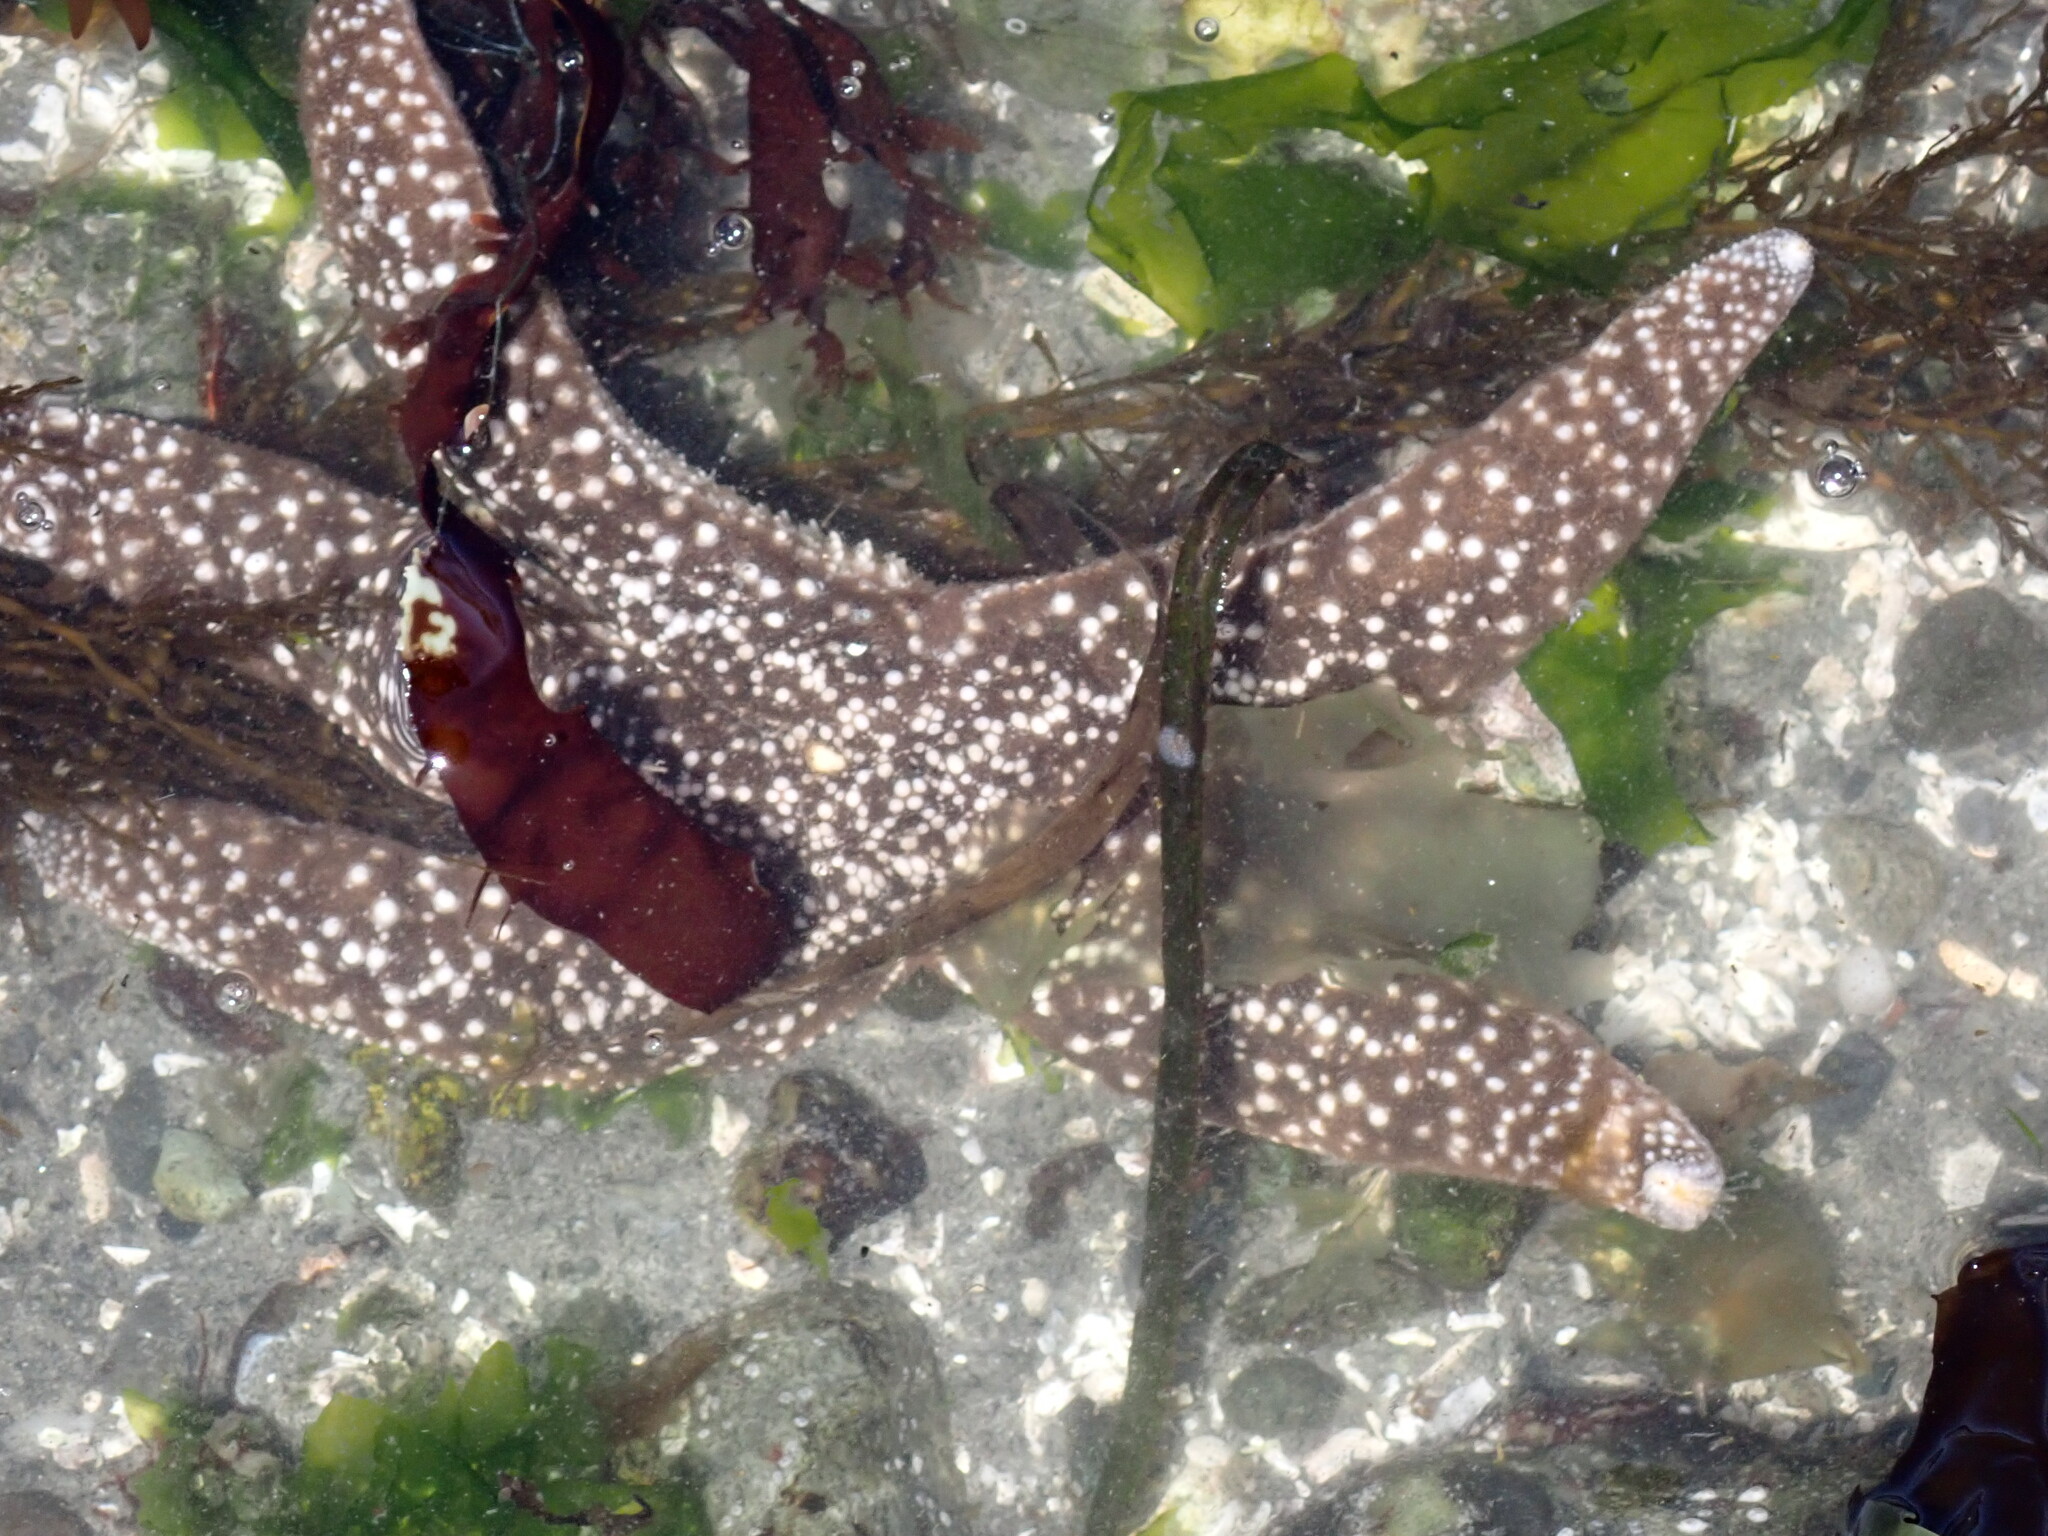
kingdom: Animalia
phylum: Echinodermata
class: Asteroidea
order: Forcipulatida
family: Asteriidae
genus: Evasterias
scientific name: Evasterias troschelii
